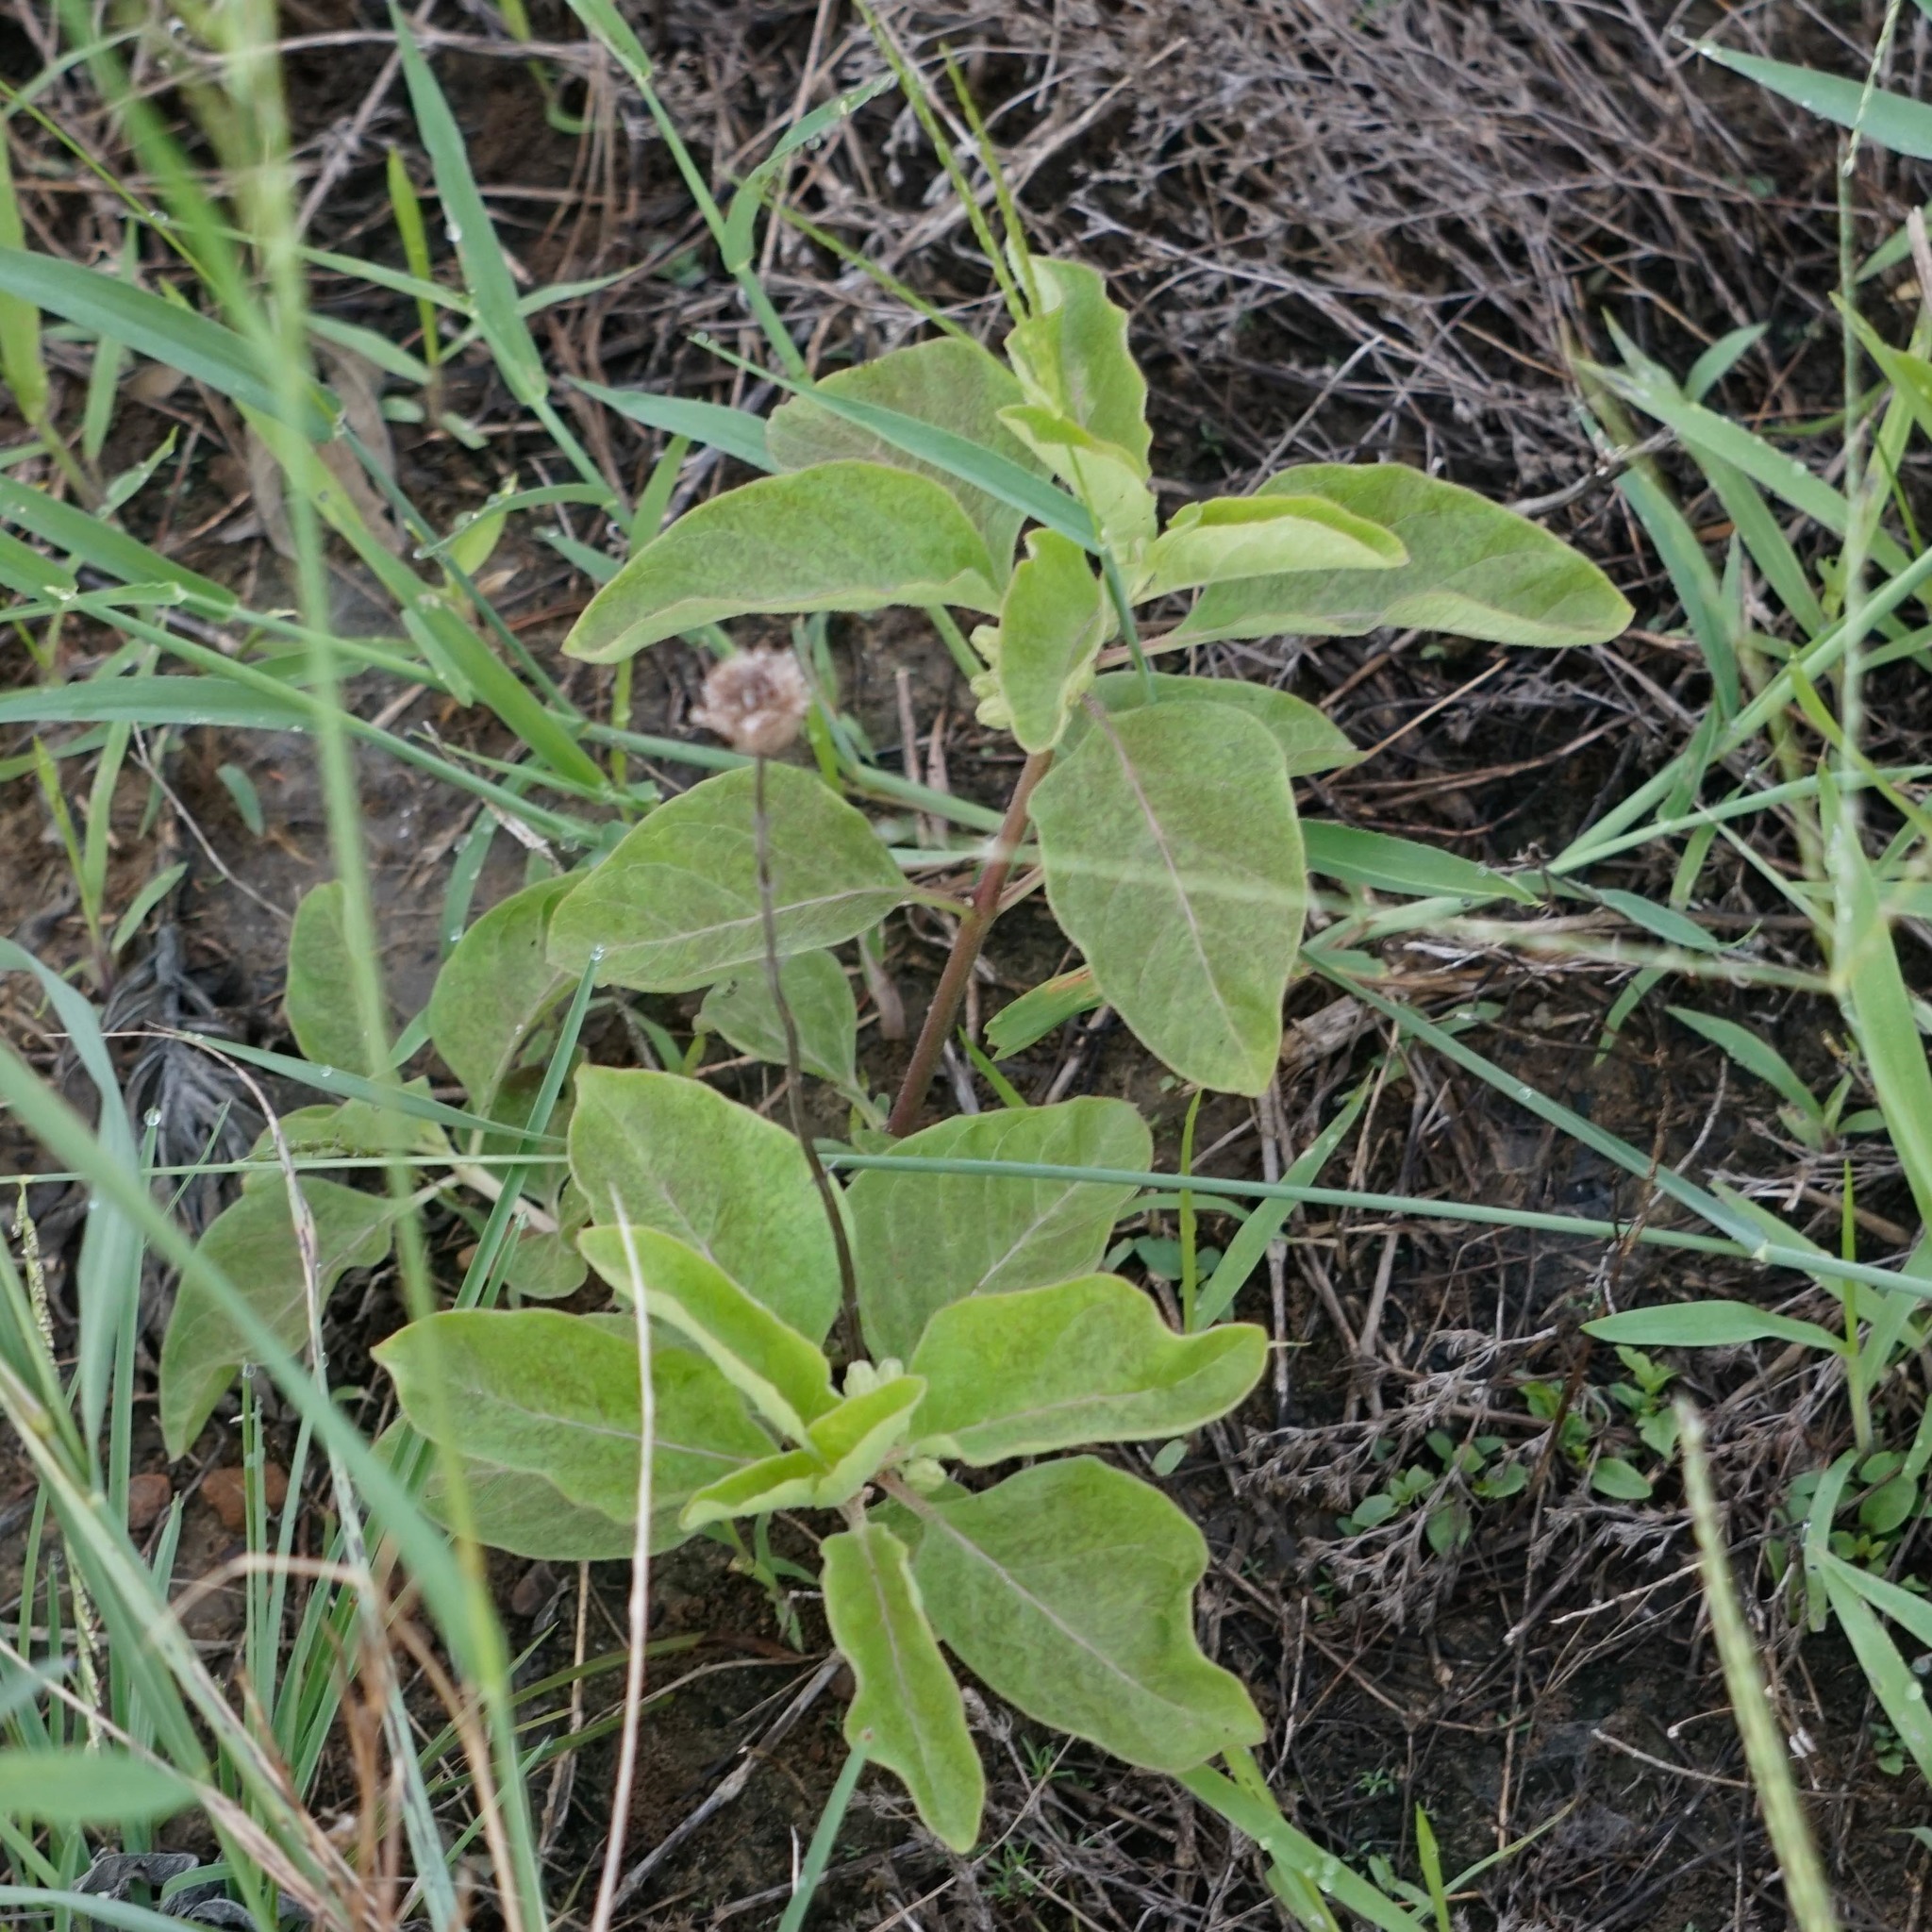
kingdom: Plantae
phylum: Tracheophyta
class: Magnoliopsida
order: Gentianales
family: Apocynaceae
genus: Asclepias
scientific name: Asclepias oenotheroides
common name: Zizotes milkweed
